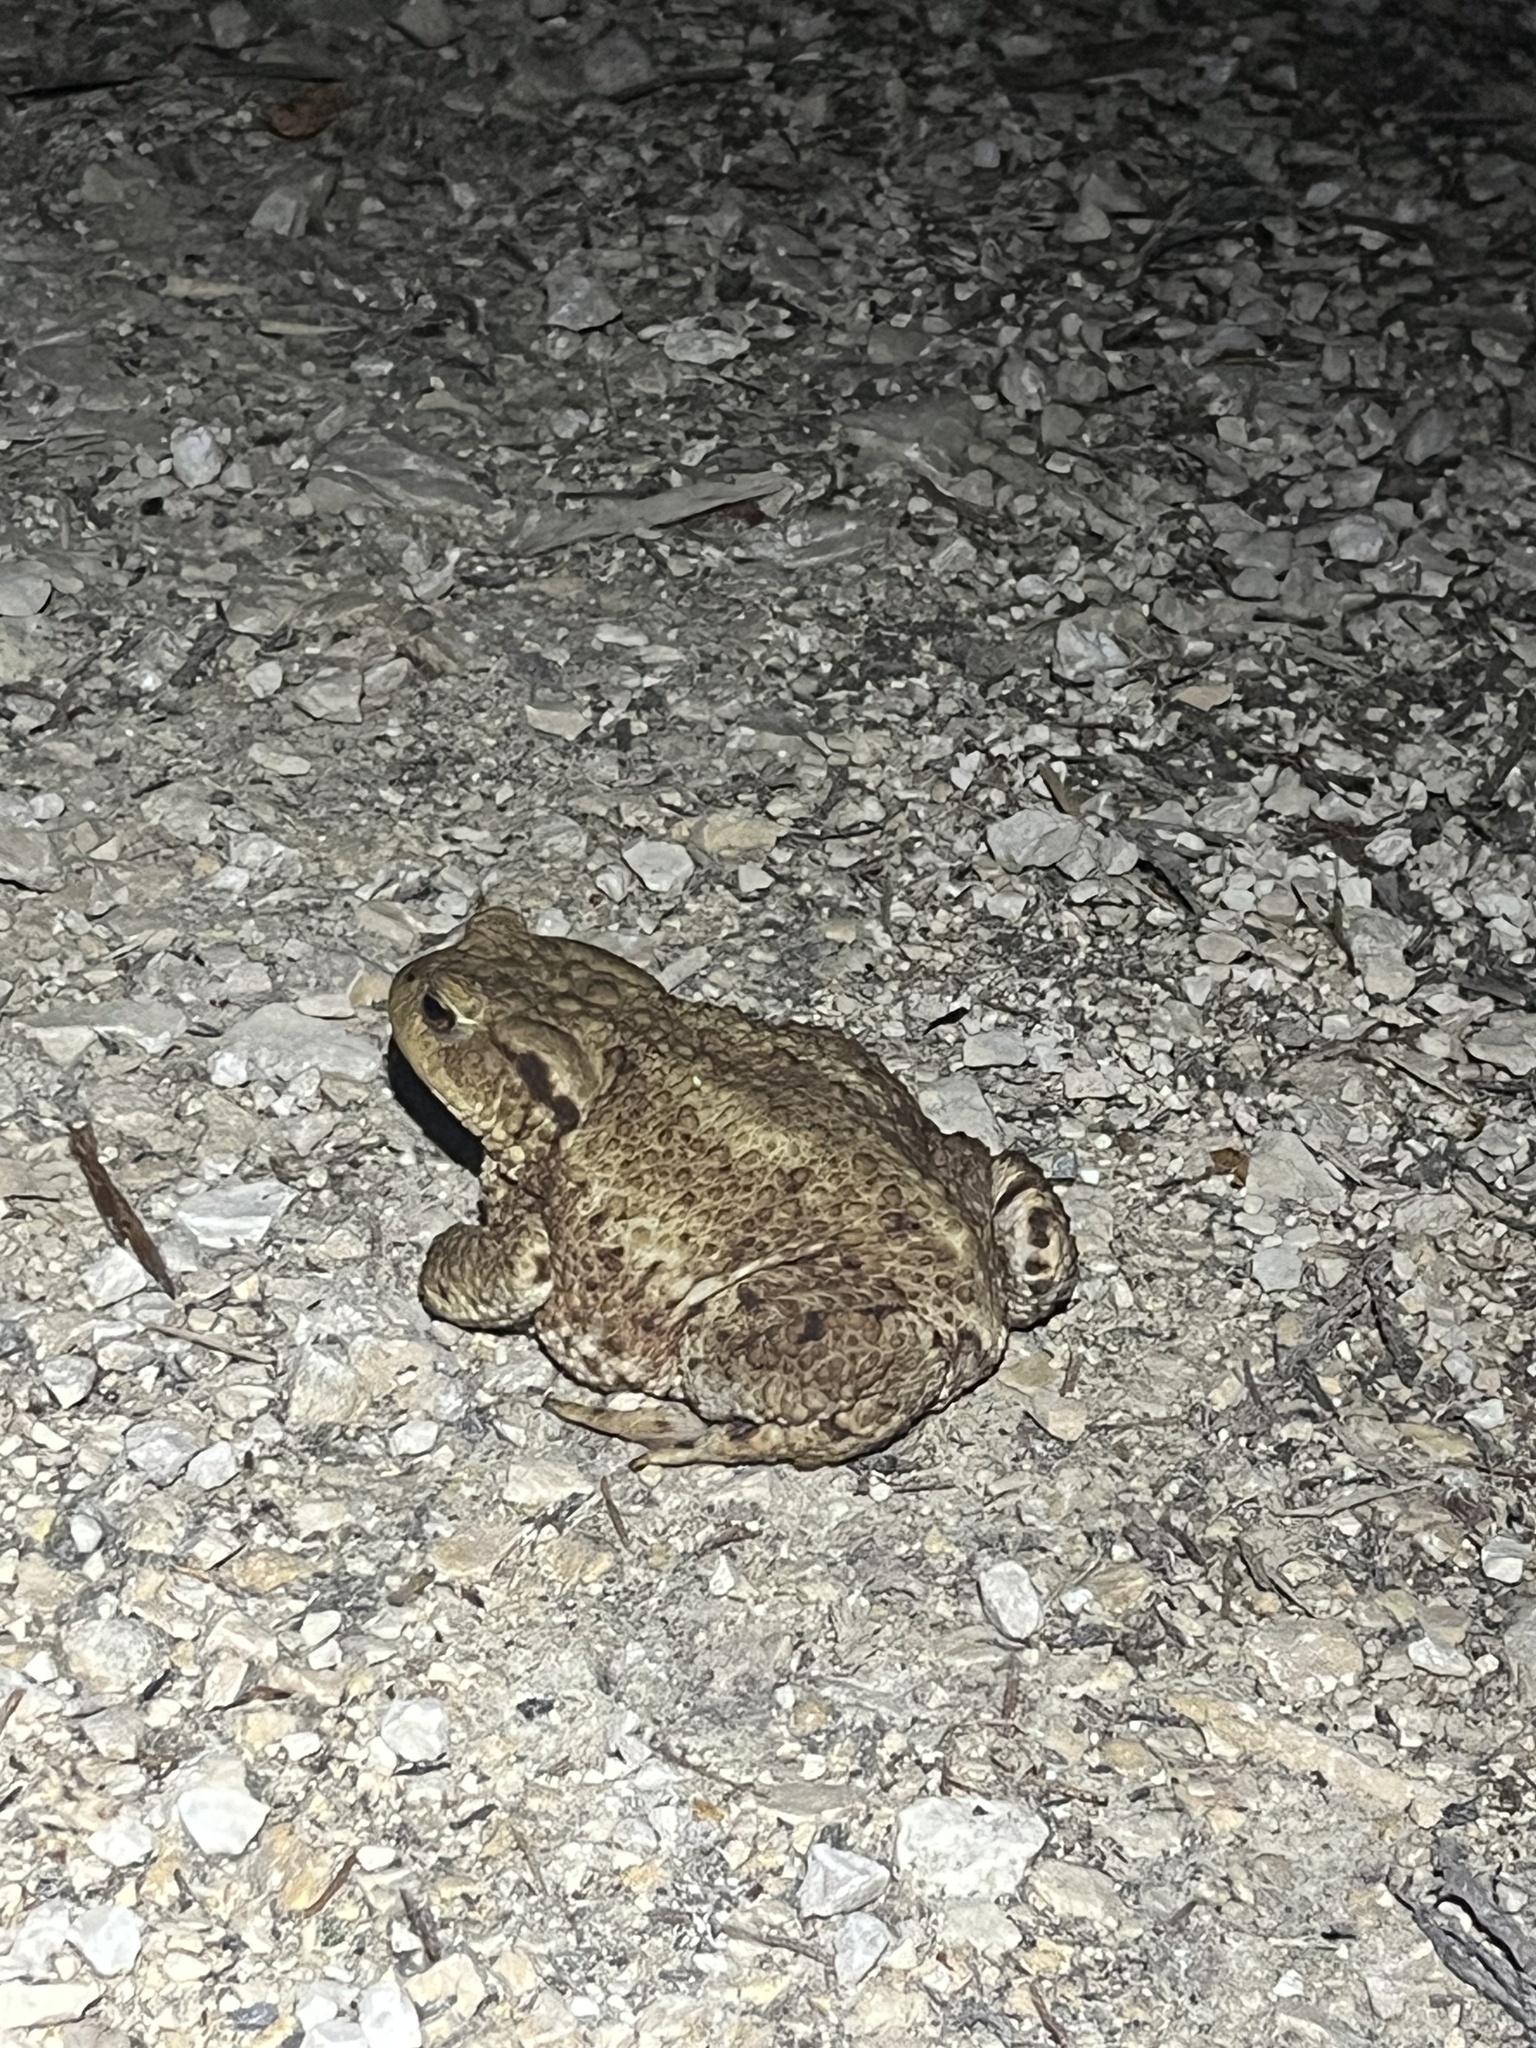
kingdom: Animalia
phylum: Chordata
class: Amphibia
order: Anura
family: Bufonidae
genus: Bufo
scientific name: Bufo bufo
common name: Common toad
